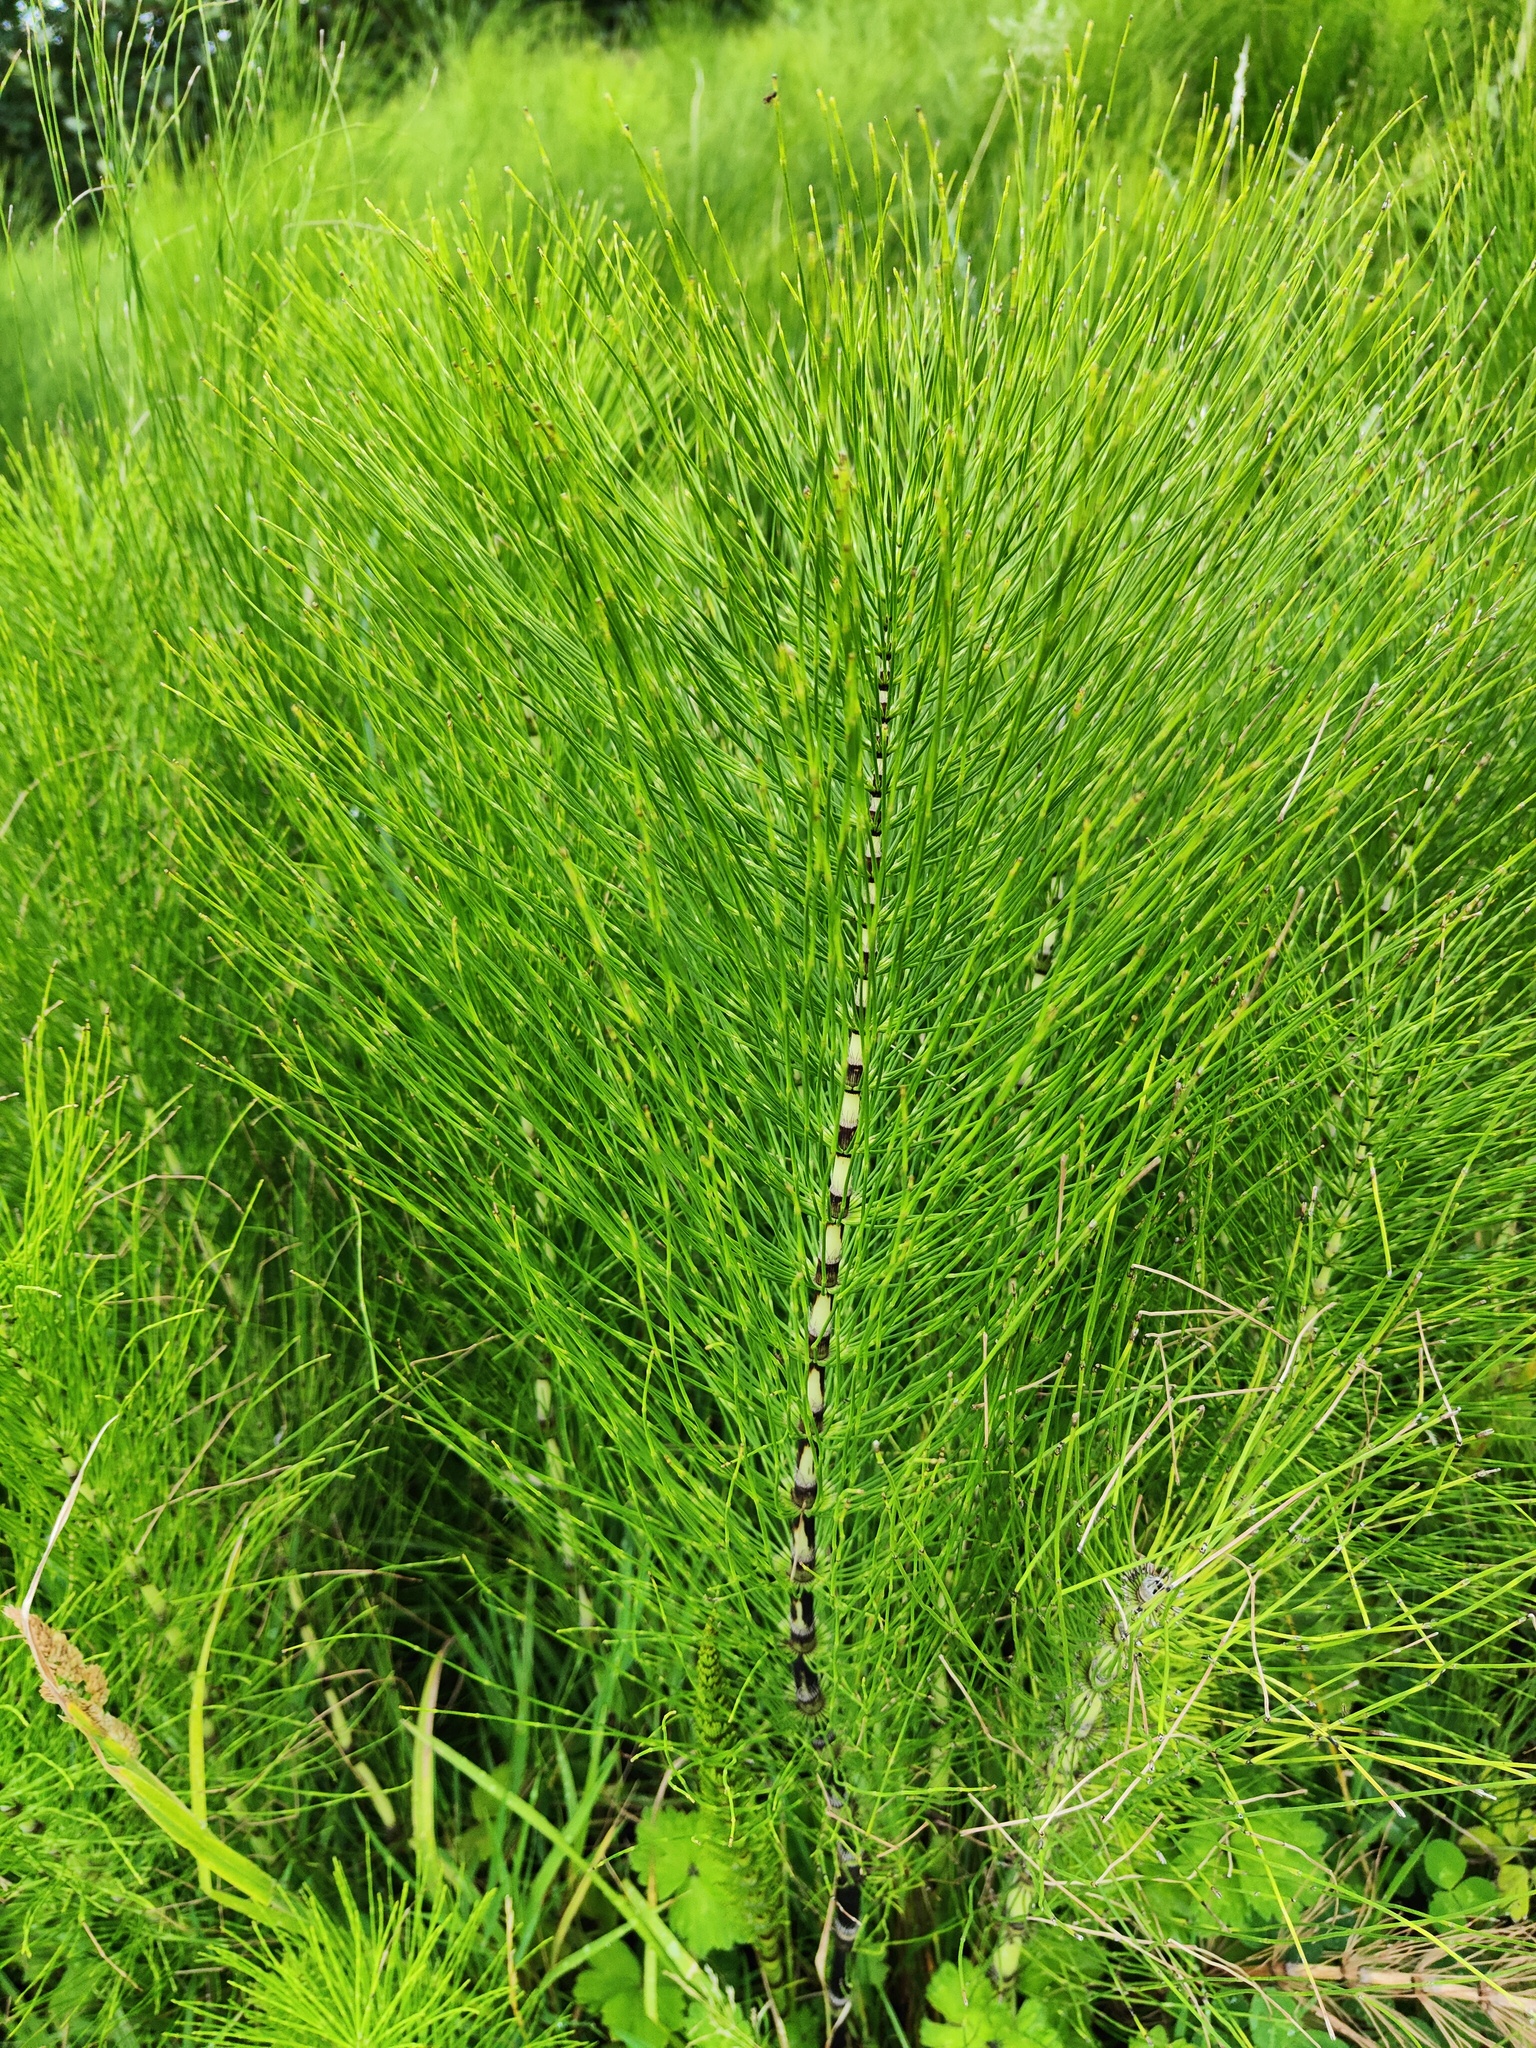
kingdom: Plantae
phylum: Tracheophyta
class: Polypodiopsida
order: Equisetales
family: Equisetaceae
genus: Equisetum
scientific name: Equisetum telmateia
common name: Great horsetail
